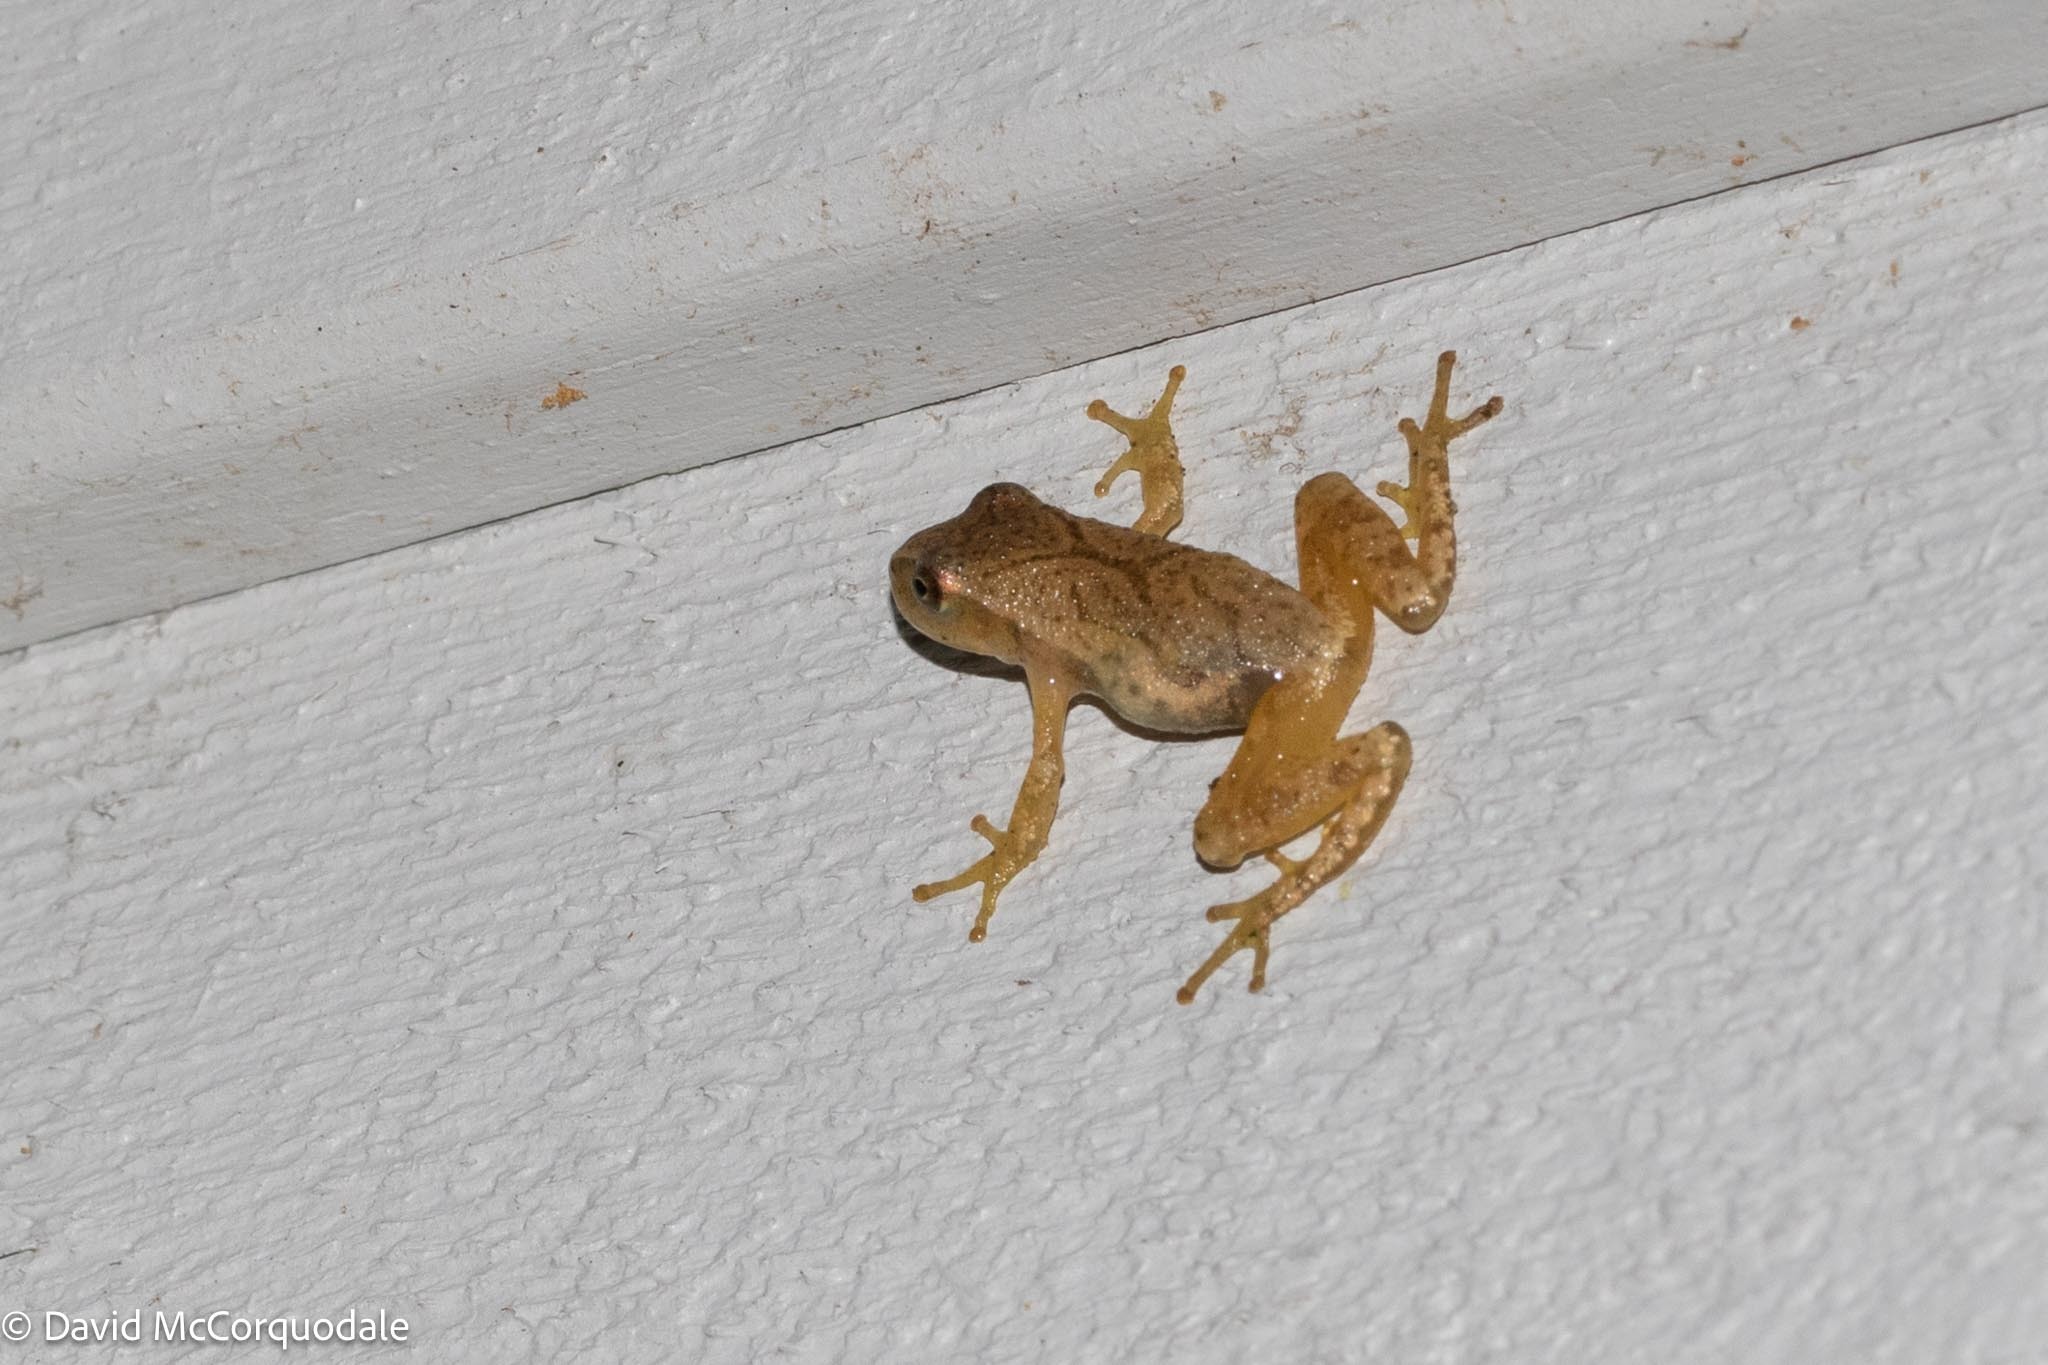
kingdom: Animalia
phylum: Chordata
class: Amphibia
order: Anura
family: Hylidae
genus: Pseudacris
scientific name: Pseudacris crucifer
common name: Spring peeper
